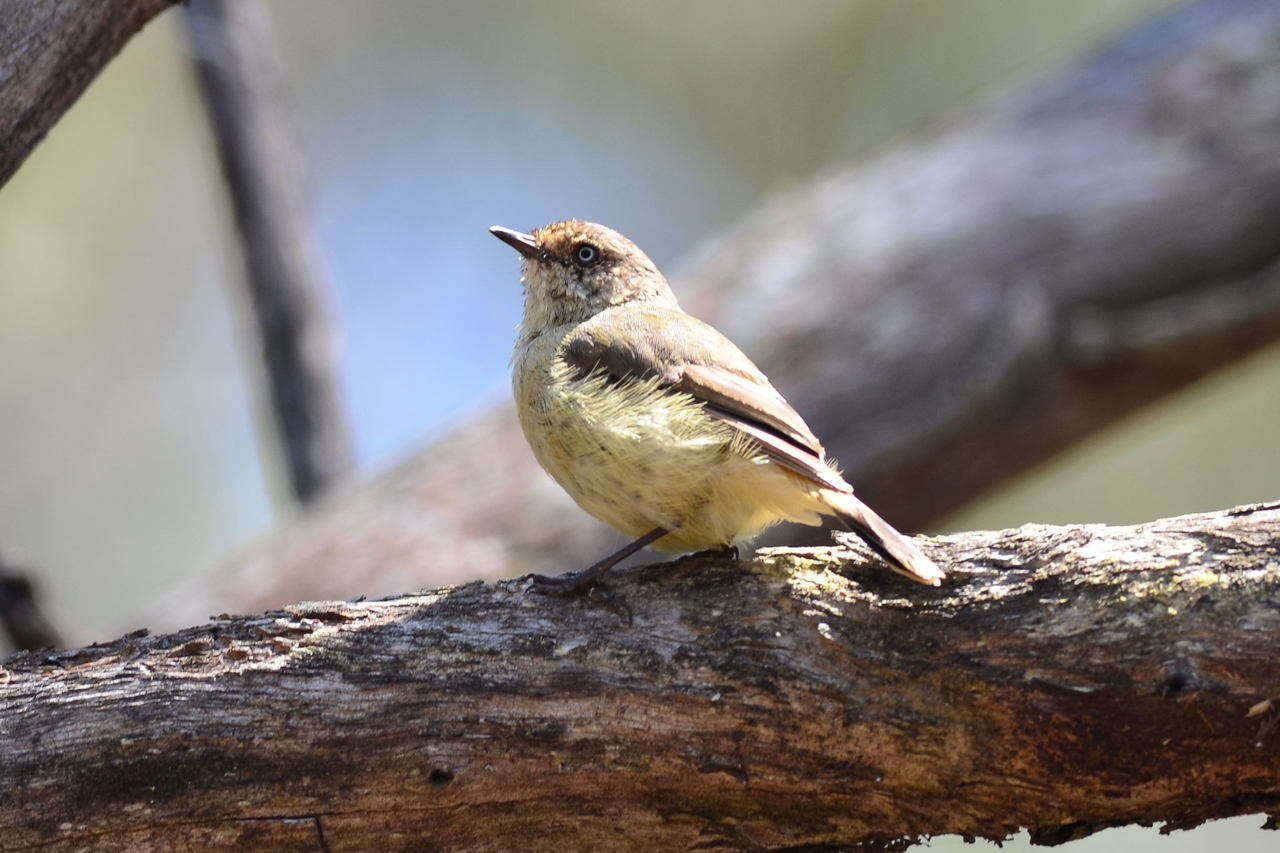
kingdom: Animalia
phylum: Chordata
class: Aves
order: Passeriformes
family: Acanthizidae
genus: Acanthiza
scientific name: Acanthiza reguloides
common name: Buff-rumped thornbill
